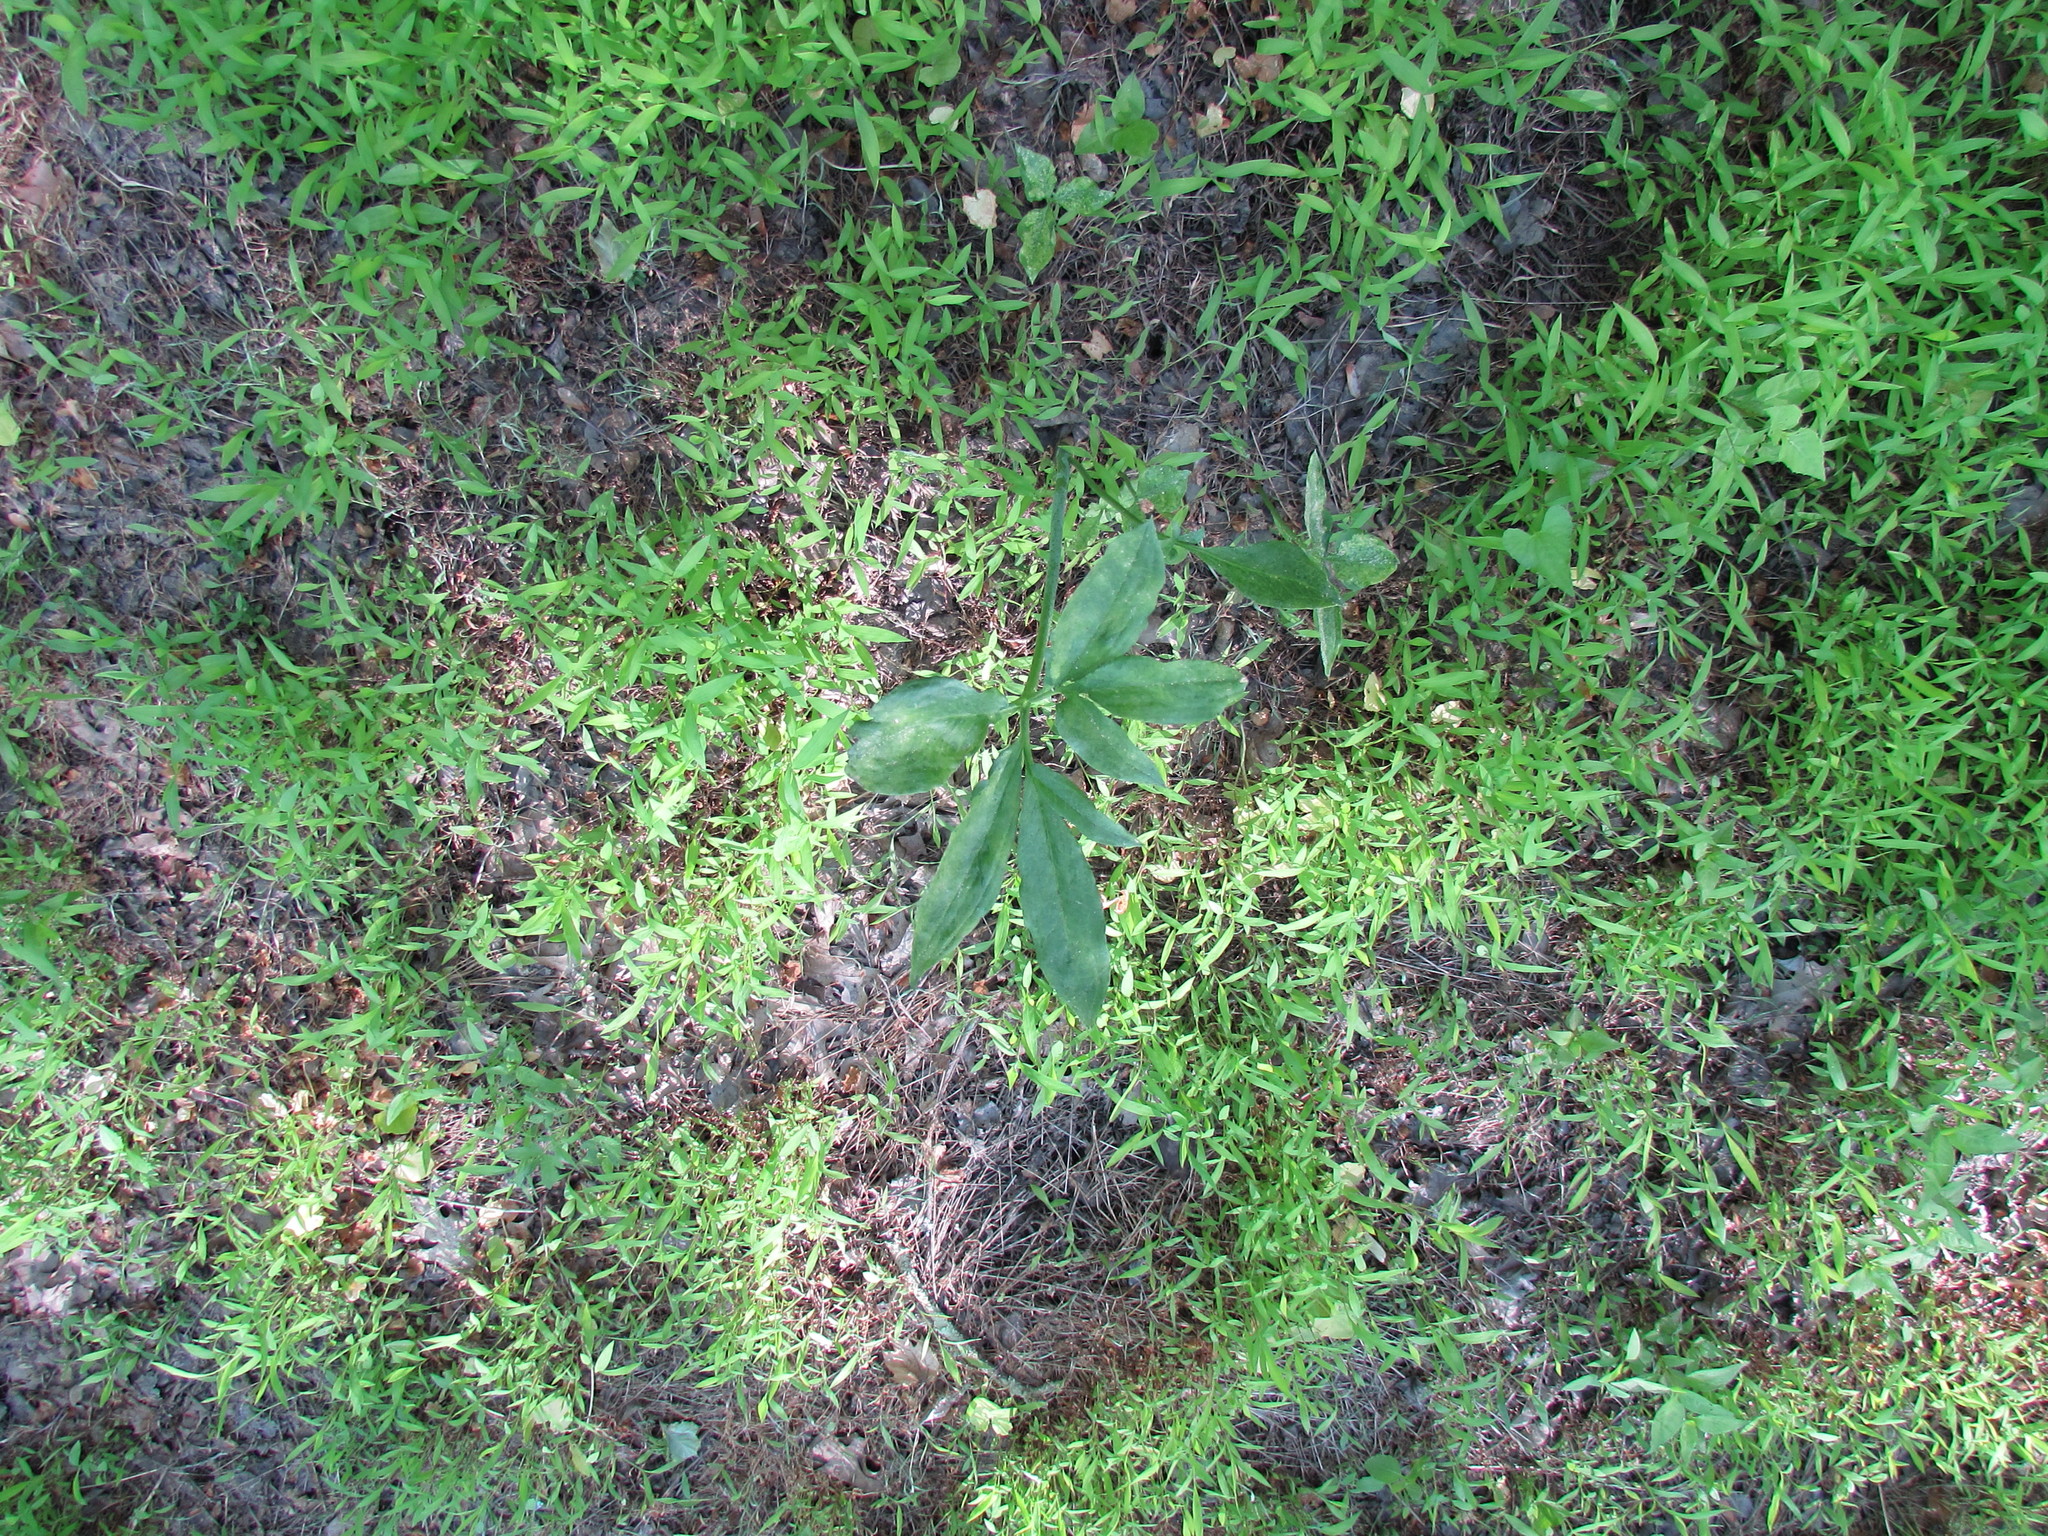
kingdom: Plantae
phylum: Tracheophyta
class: Liliopsida
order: Alismatales
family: Araceae
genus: Arisaema
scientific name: Arisaema dracontium
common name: Dragon-arum
